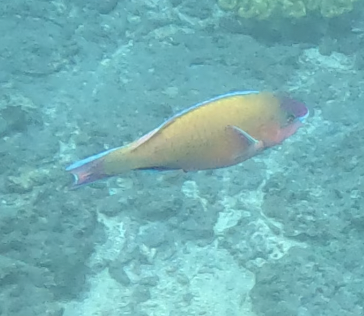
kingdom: Animalia
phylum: Chordata
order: Perciformes
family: Scaridae
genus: Scarus
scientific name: Scarus psittacus
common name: Palenose parrotfish
